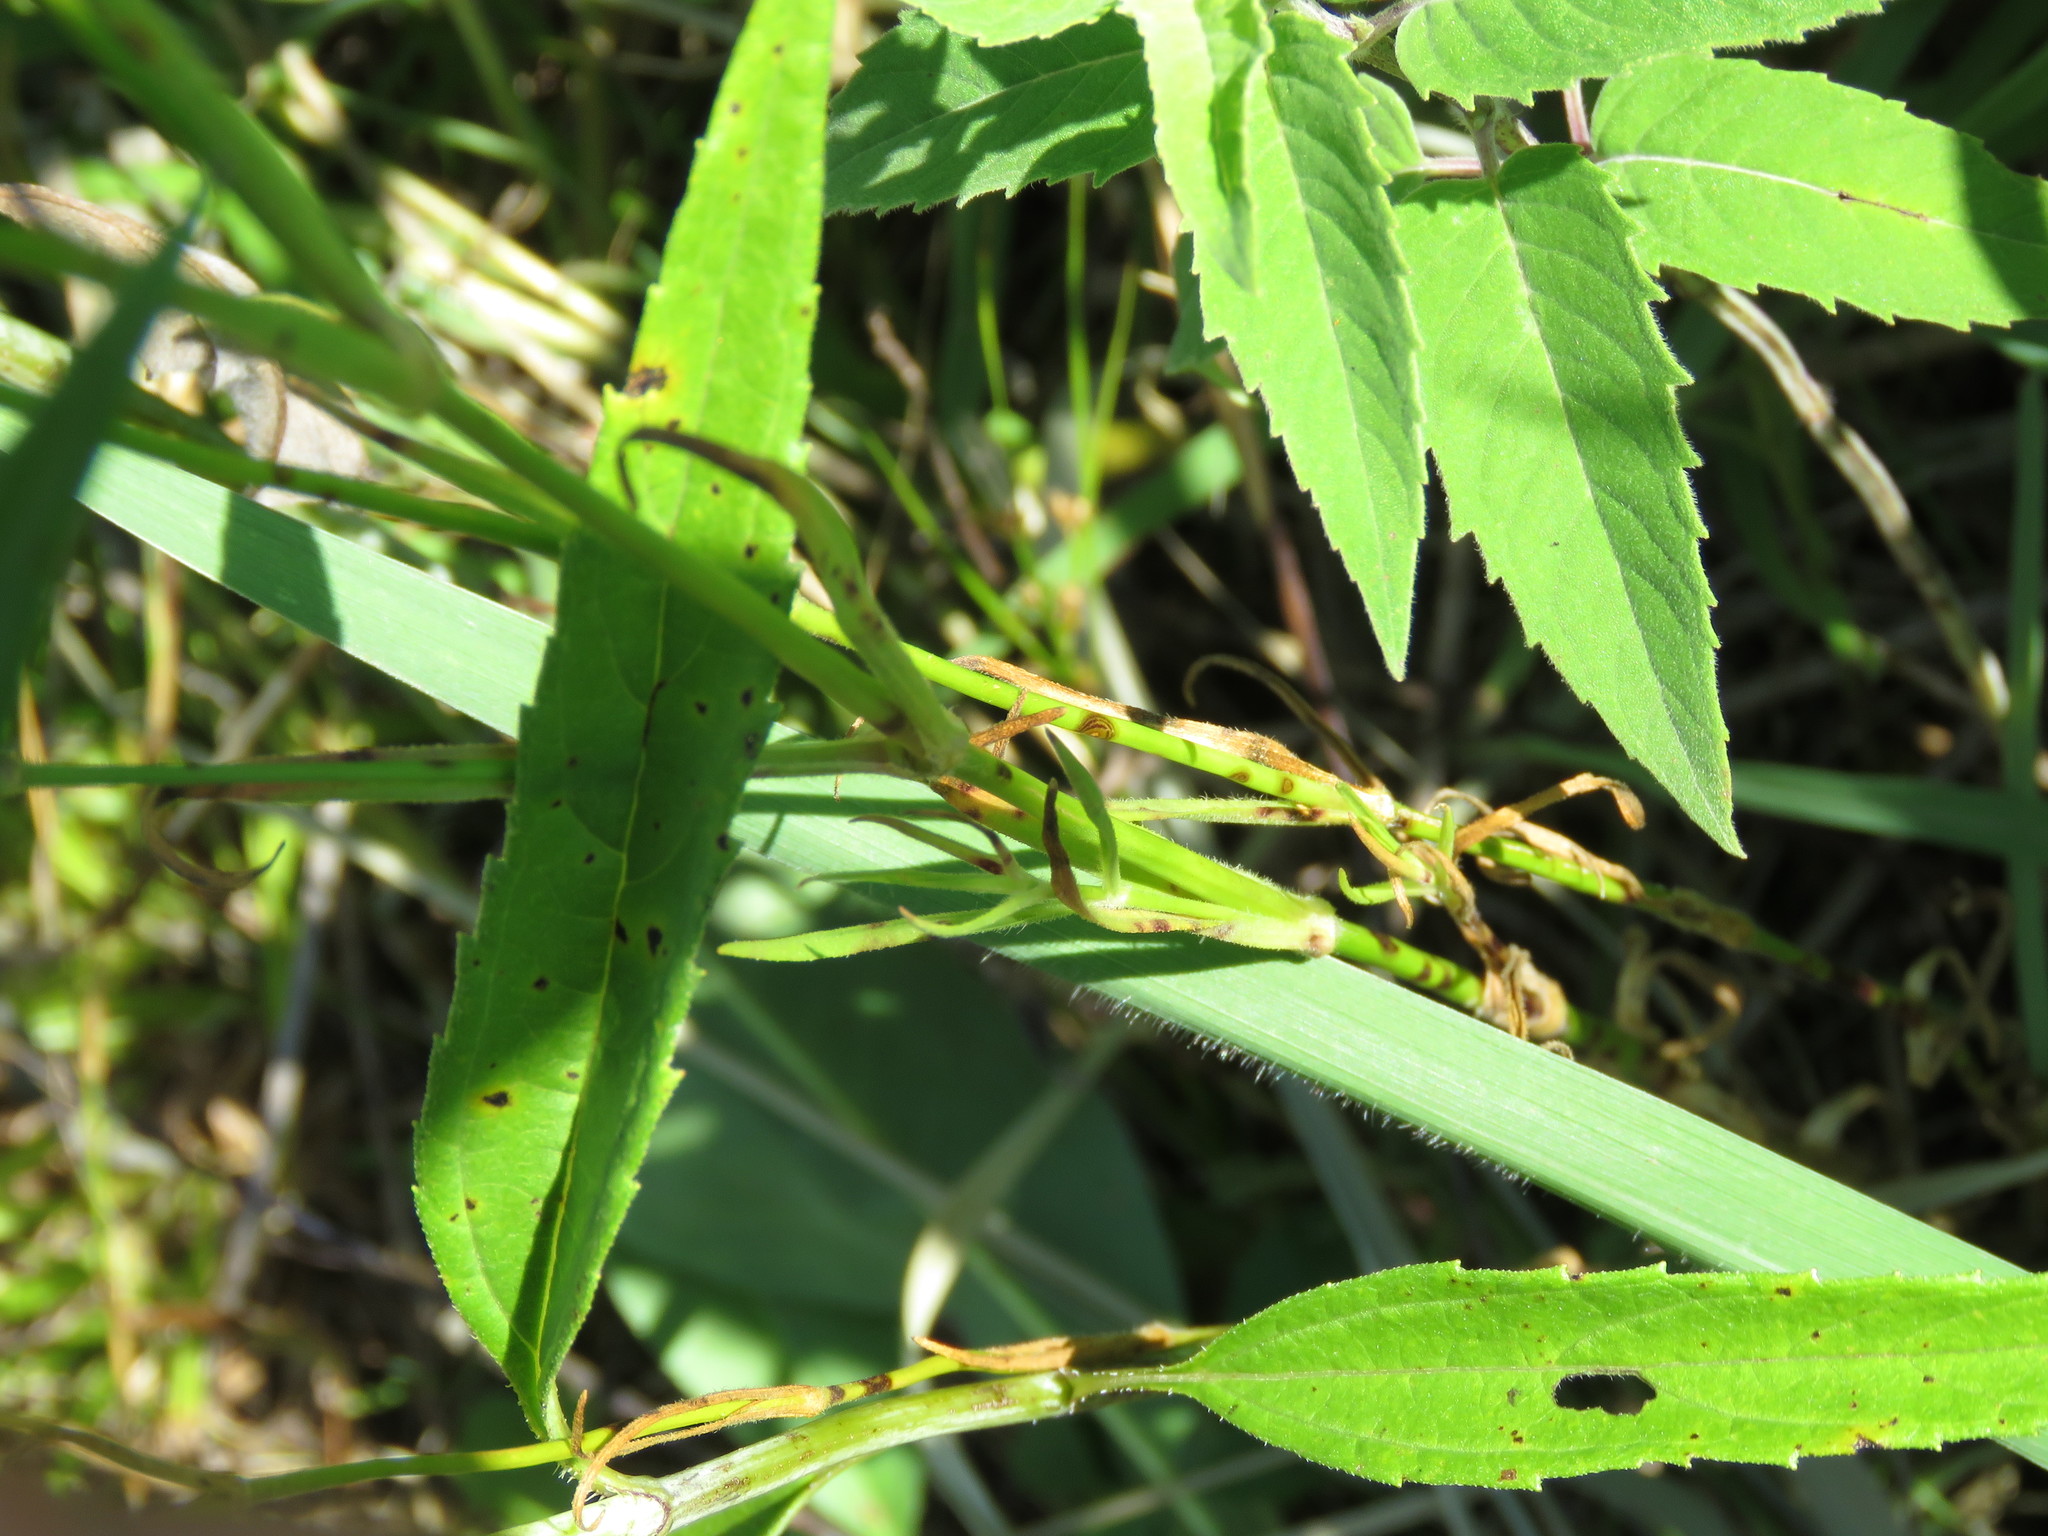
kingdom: Plantae
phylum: Tracheophyta
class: Magnoliopsida
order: Caryophyllales
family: Caryophyllaceae
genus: Dianthus
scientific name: Dianthus armeria
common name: Deptford pink
